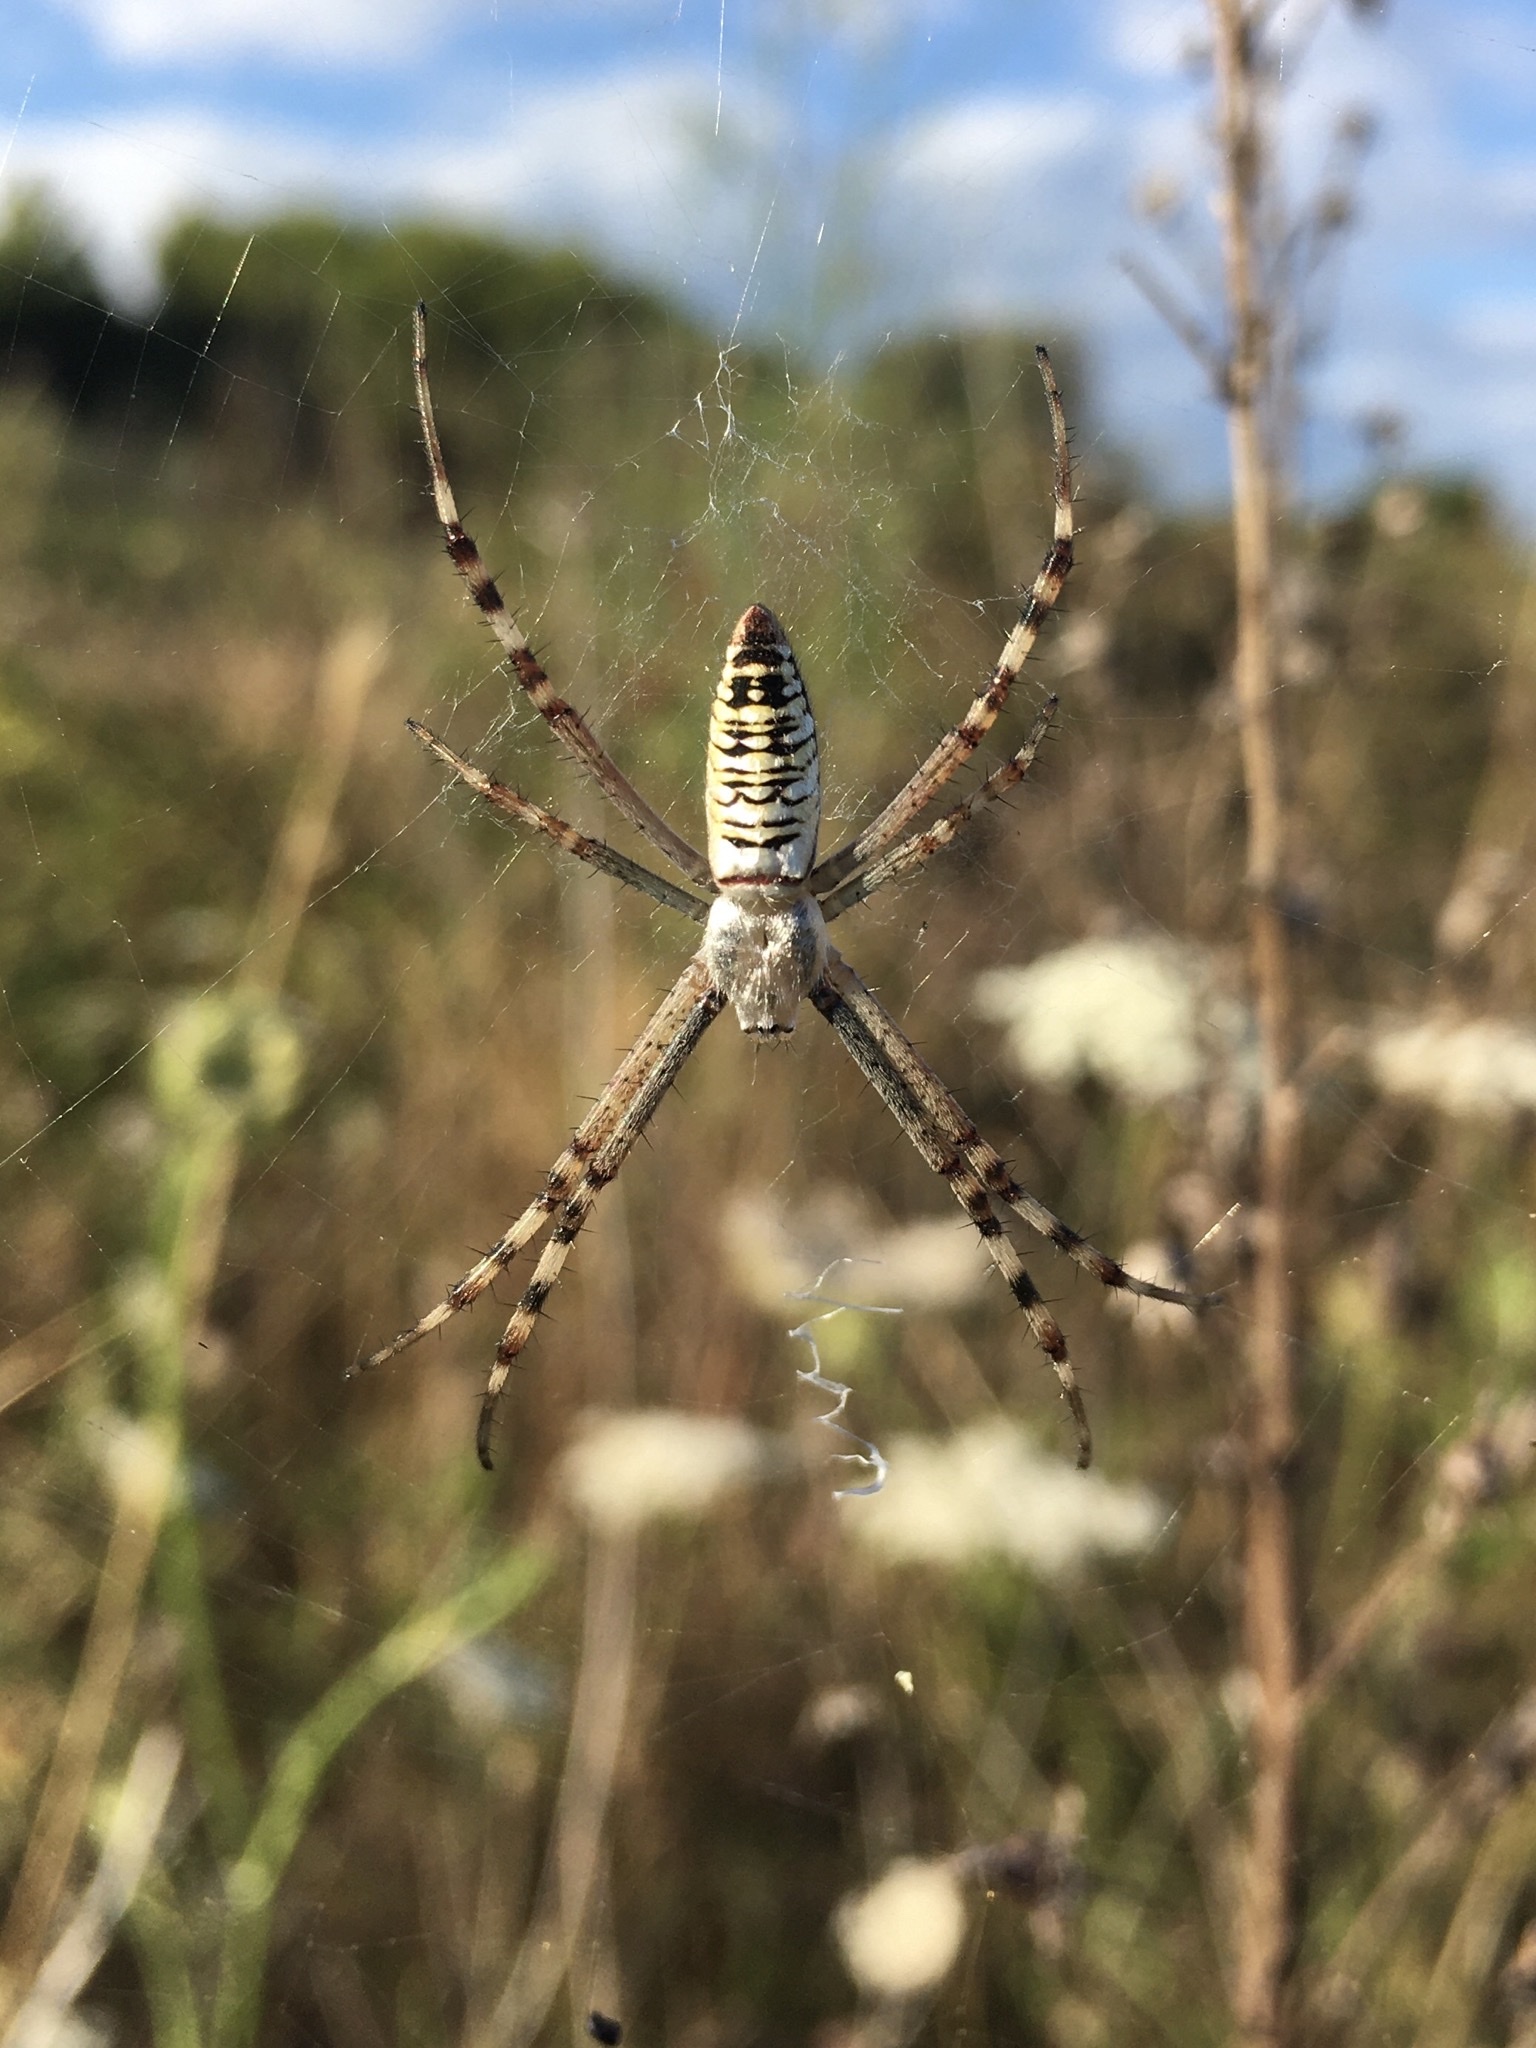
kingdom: Animalia
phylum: Arthropoda
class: Arachnida
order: Araneae
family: Araneidae
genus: Argiope
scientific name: Argiope bruennichi
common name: Wasp spider
